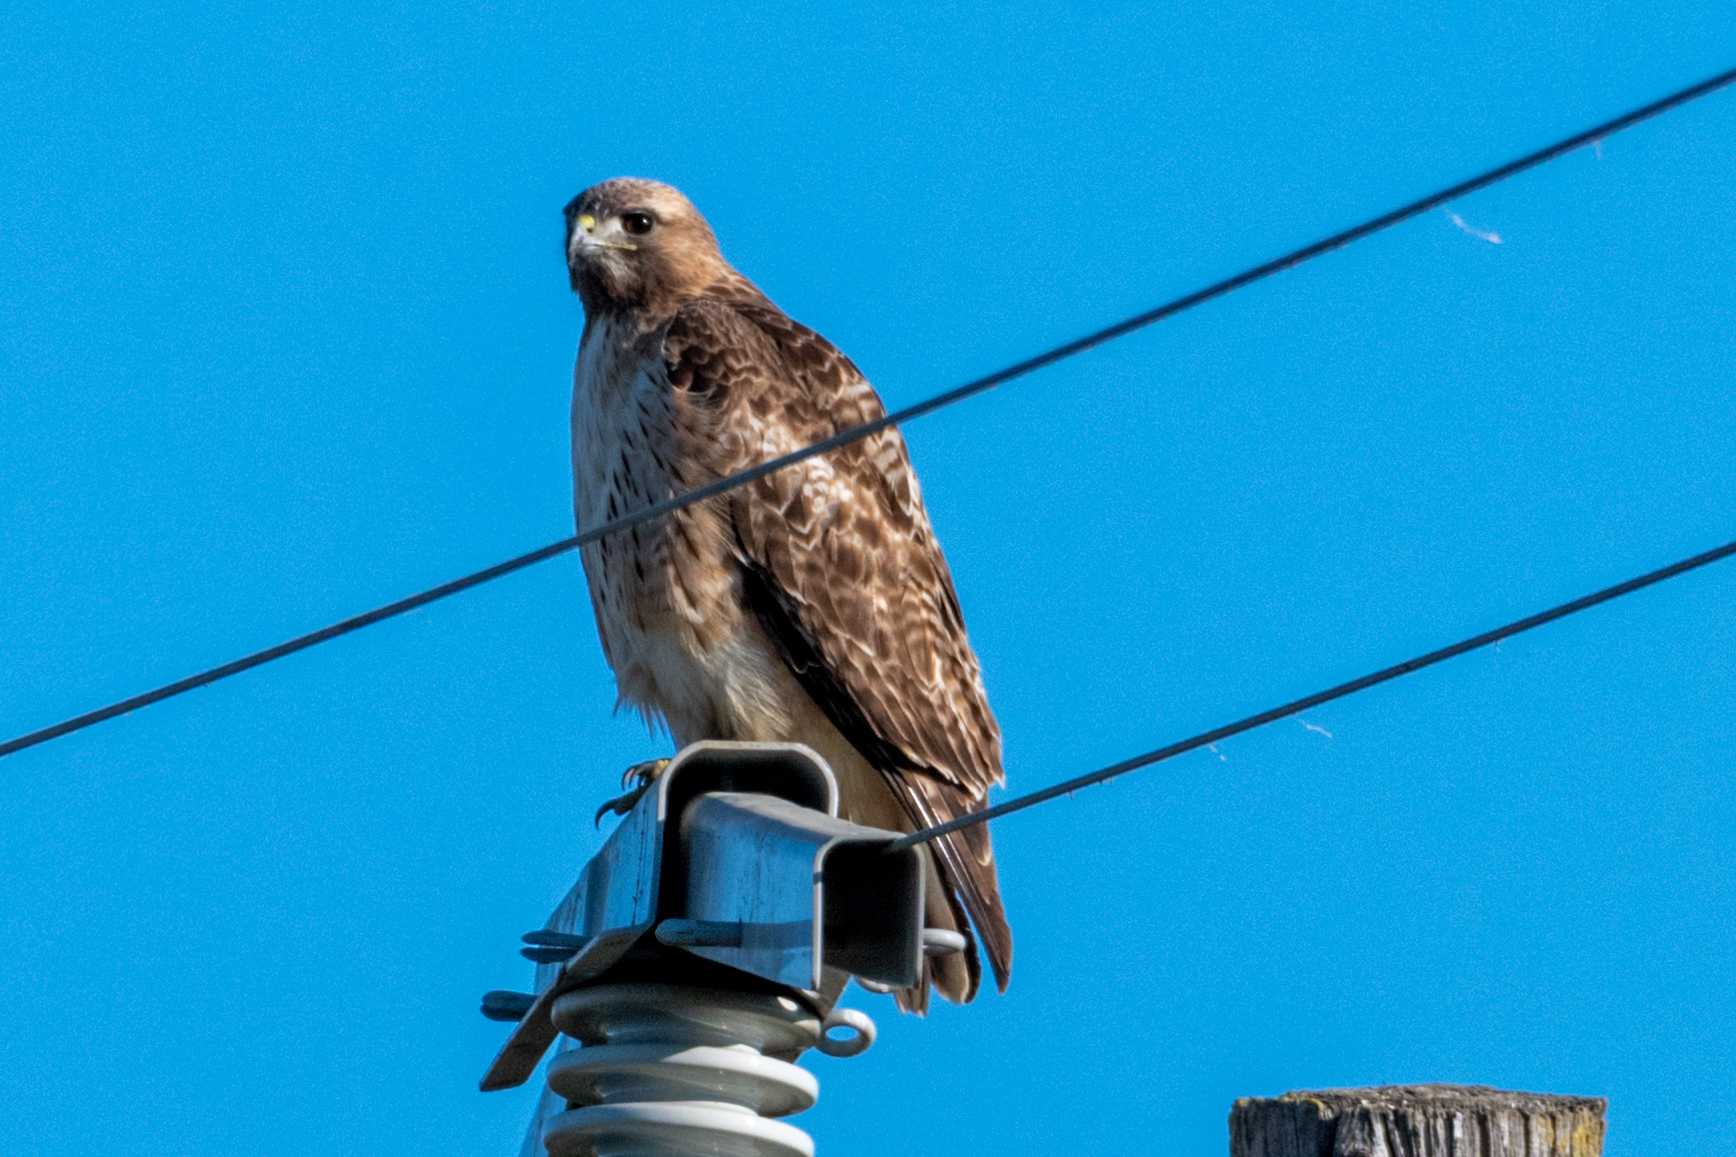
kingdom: Animalia
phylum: Chordata
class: Aves
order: Accipitriformes
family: Accipitridae
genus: Buteo
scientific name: Buteo jamaicensis
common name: Red-tailed hawk
